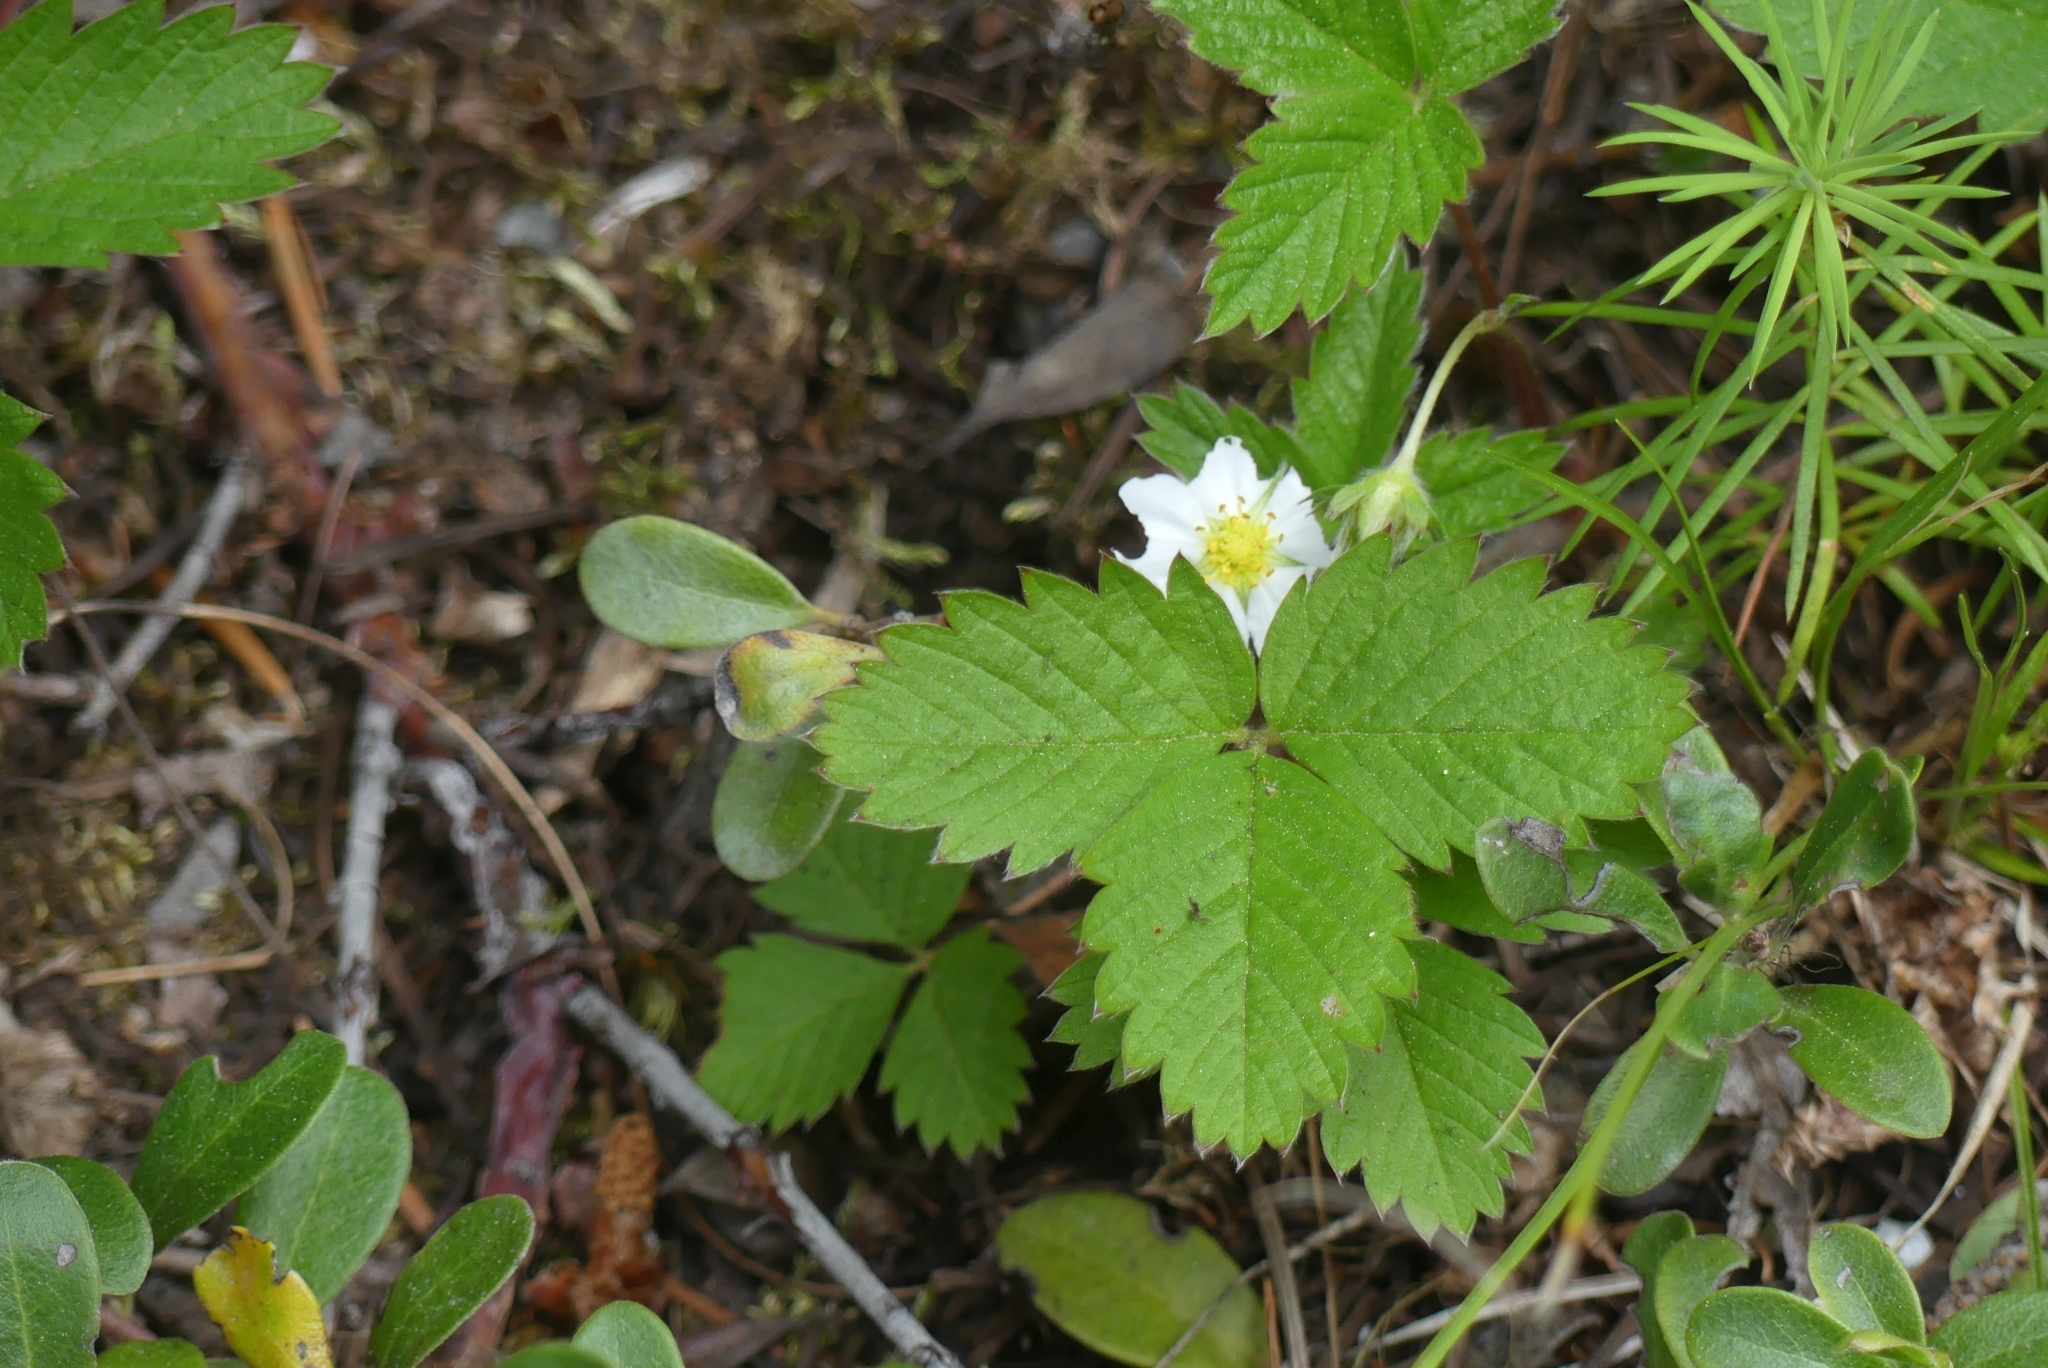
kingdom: Plantae
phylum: Tracheophyta
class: Magnoliopsida
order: Rosales
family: Rosaceae
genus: Fragaria
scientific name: Fragaria vesca
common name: Wild strawberry
